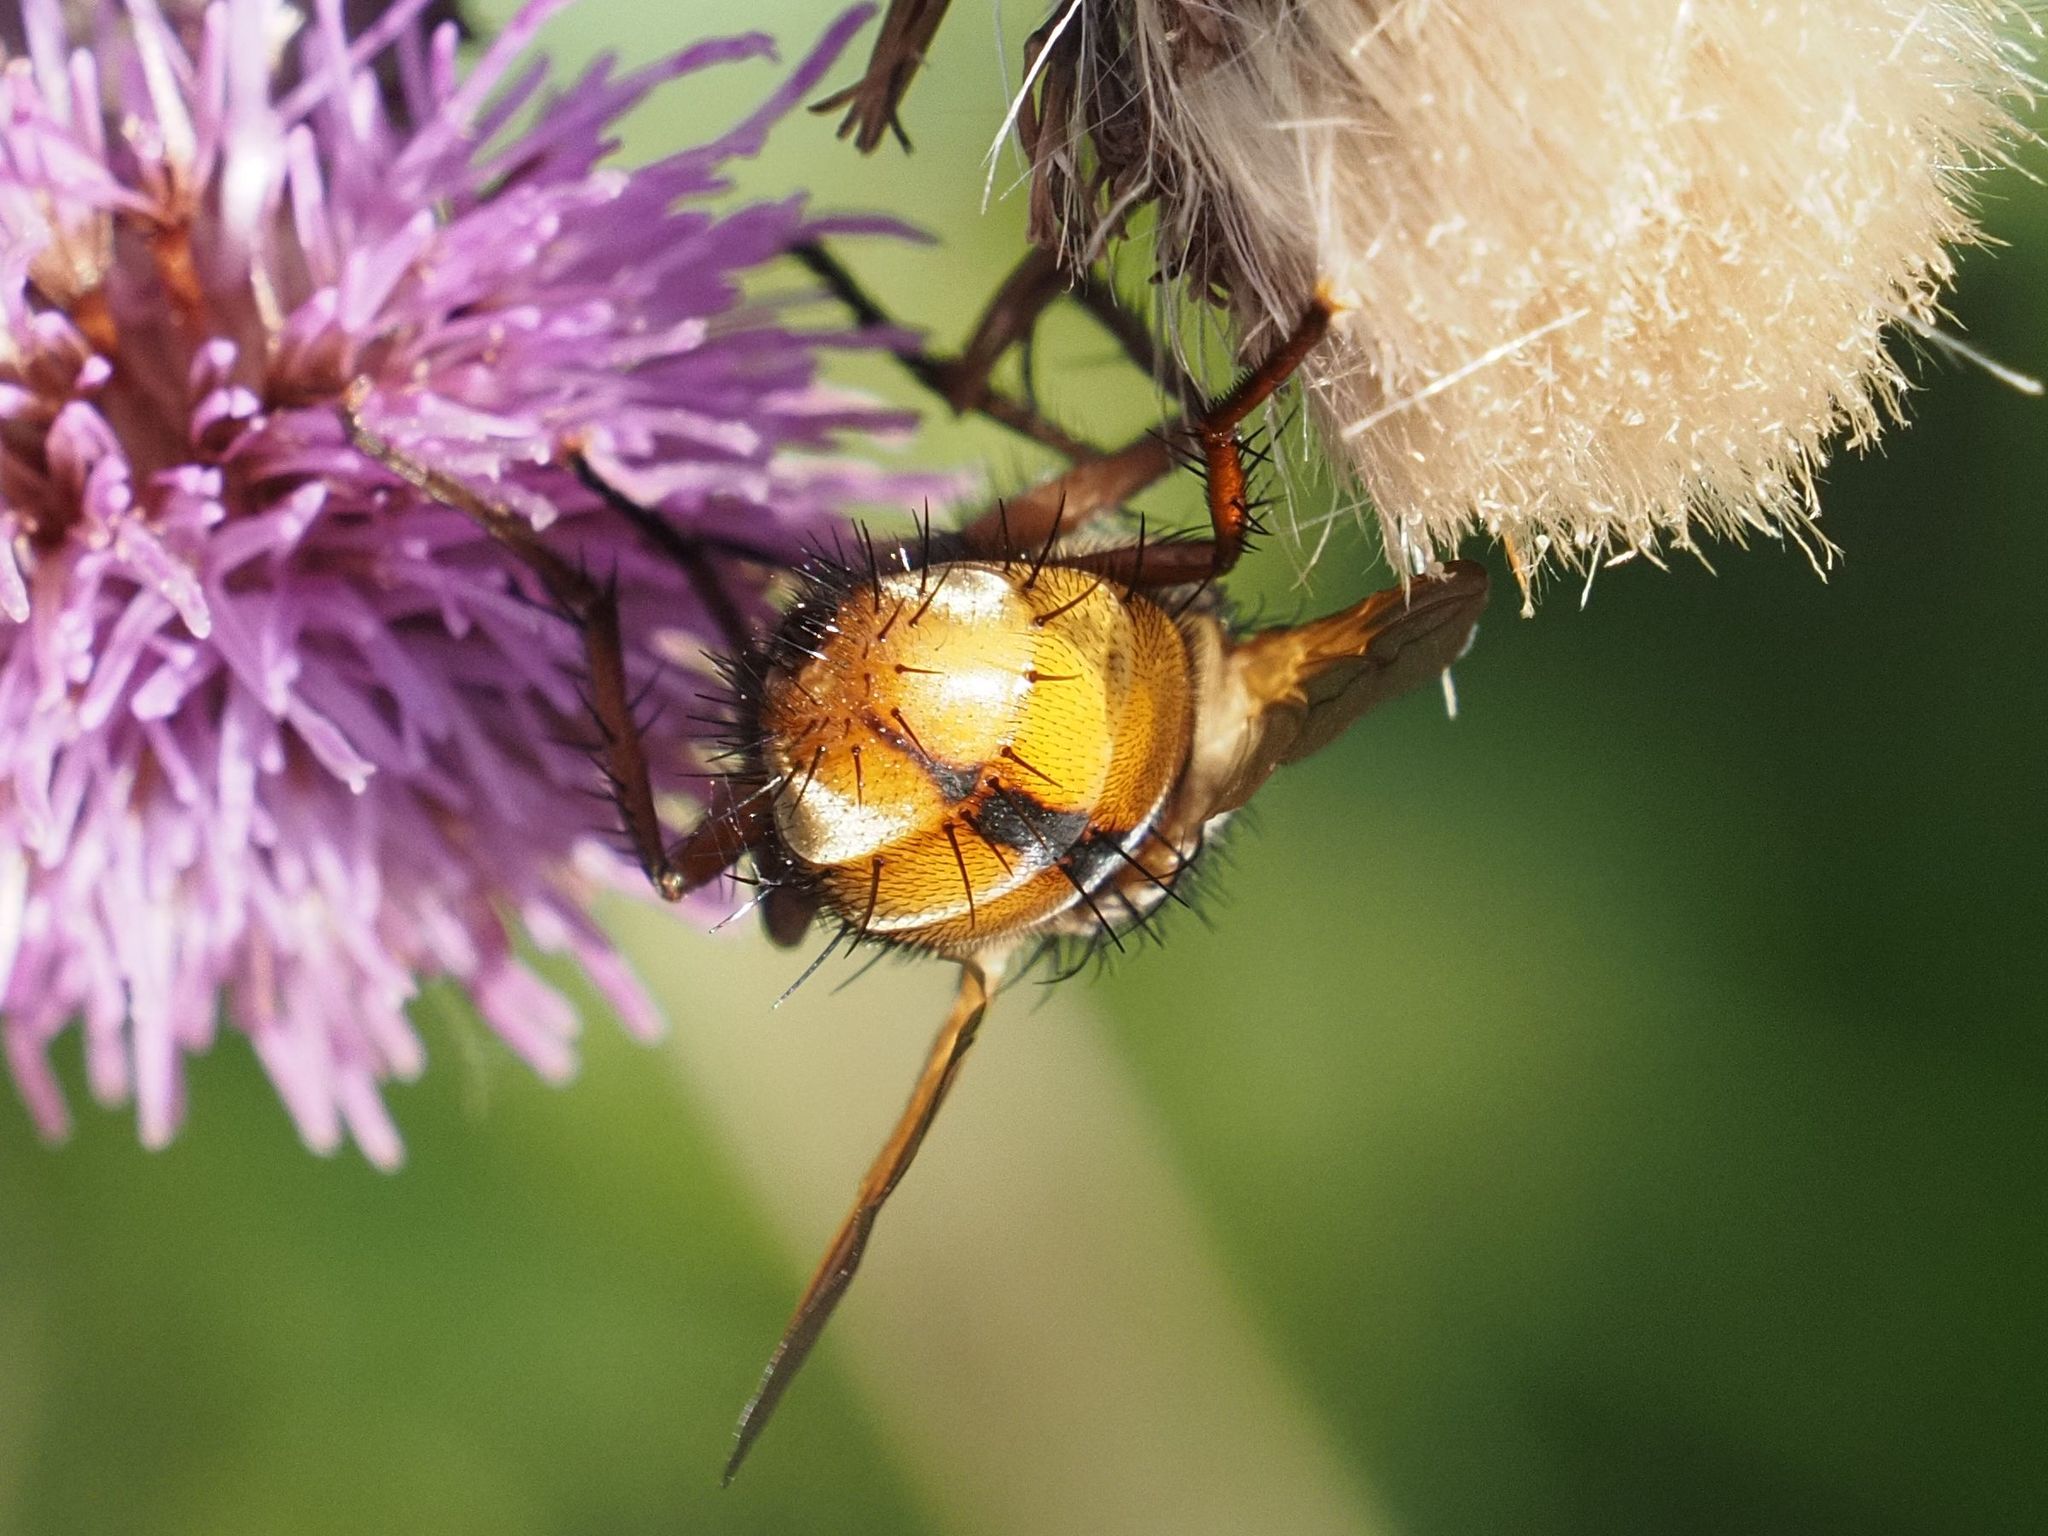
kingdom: Animalia
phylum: Arthropoda
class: Insecta
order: Diptera
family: Tachinidae
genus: Tachina
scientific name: Tachina fera
